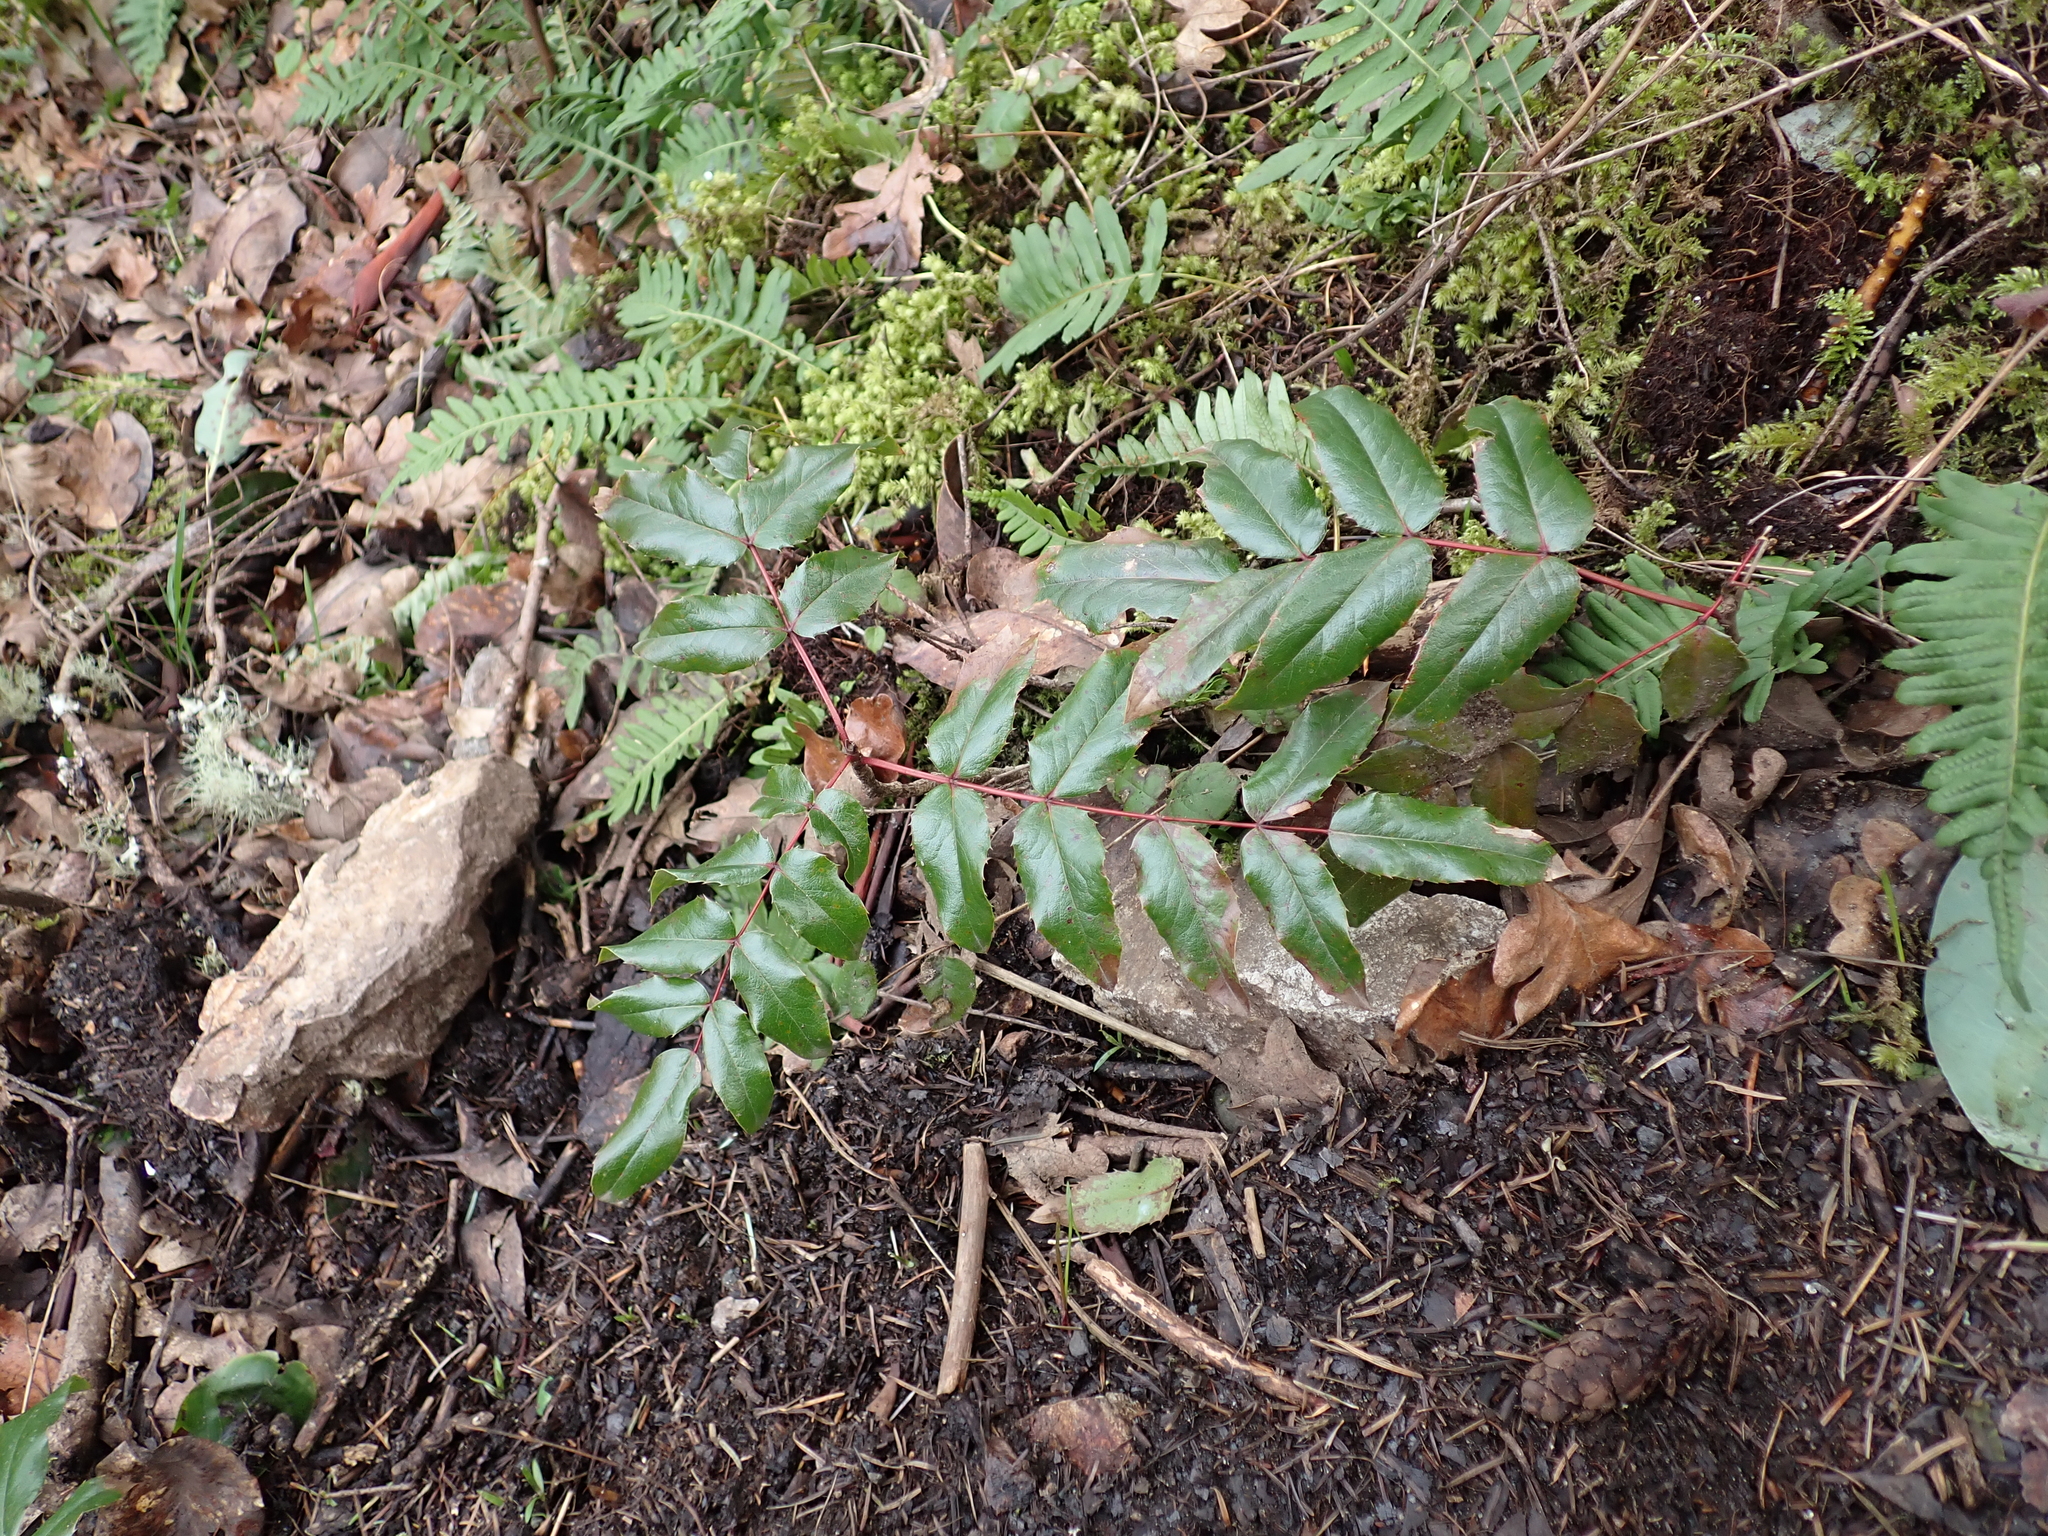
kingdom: Plantae
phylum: Tracheophyta
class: Magnoliopsida
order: Ranunculales
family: Berberidaceae
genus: Mahonia
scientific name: Mahonia aquifolium
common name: Oregon-grape
